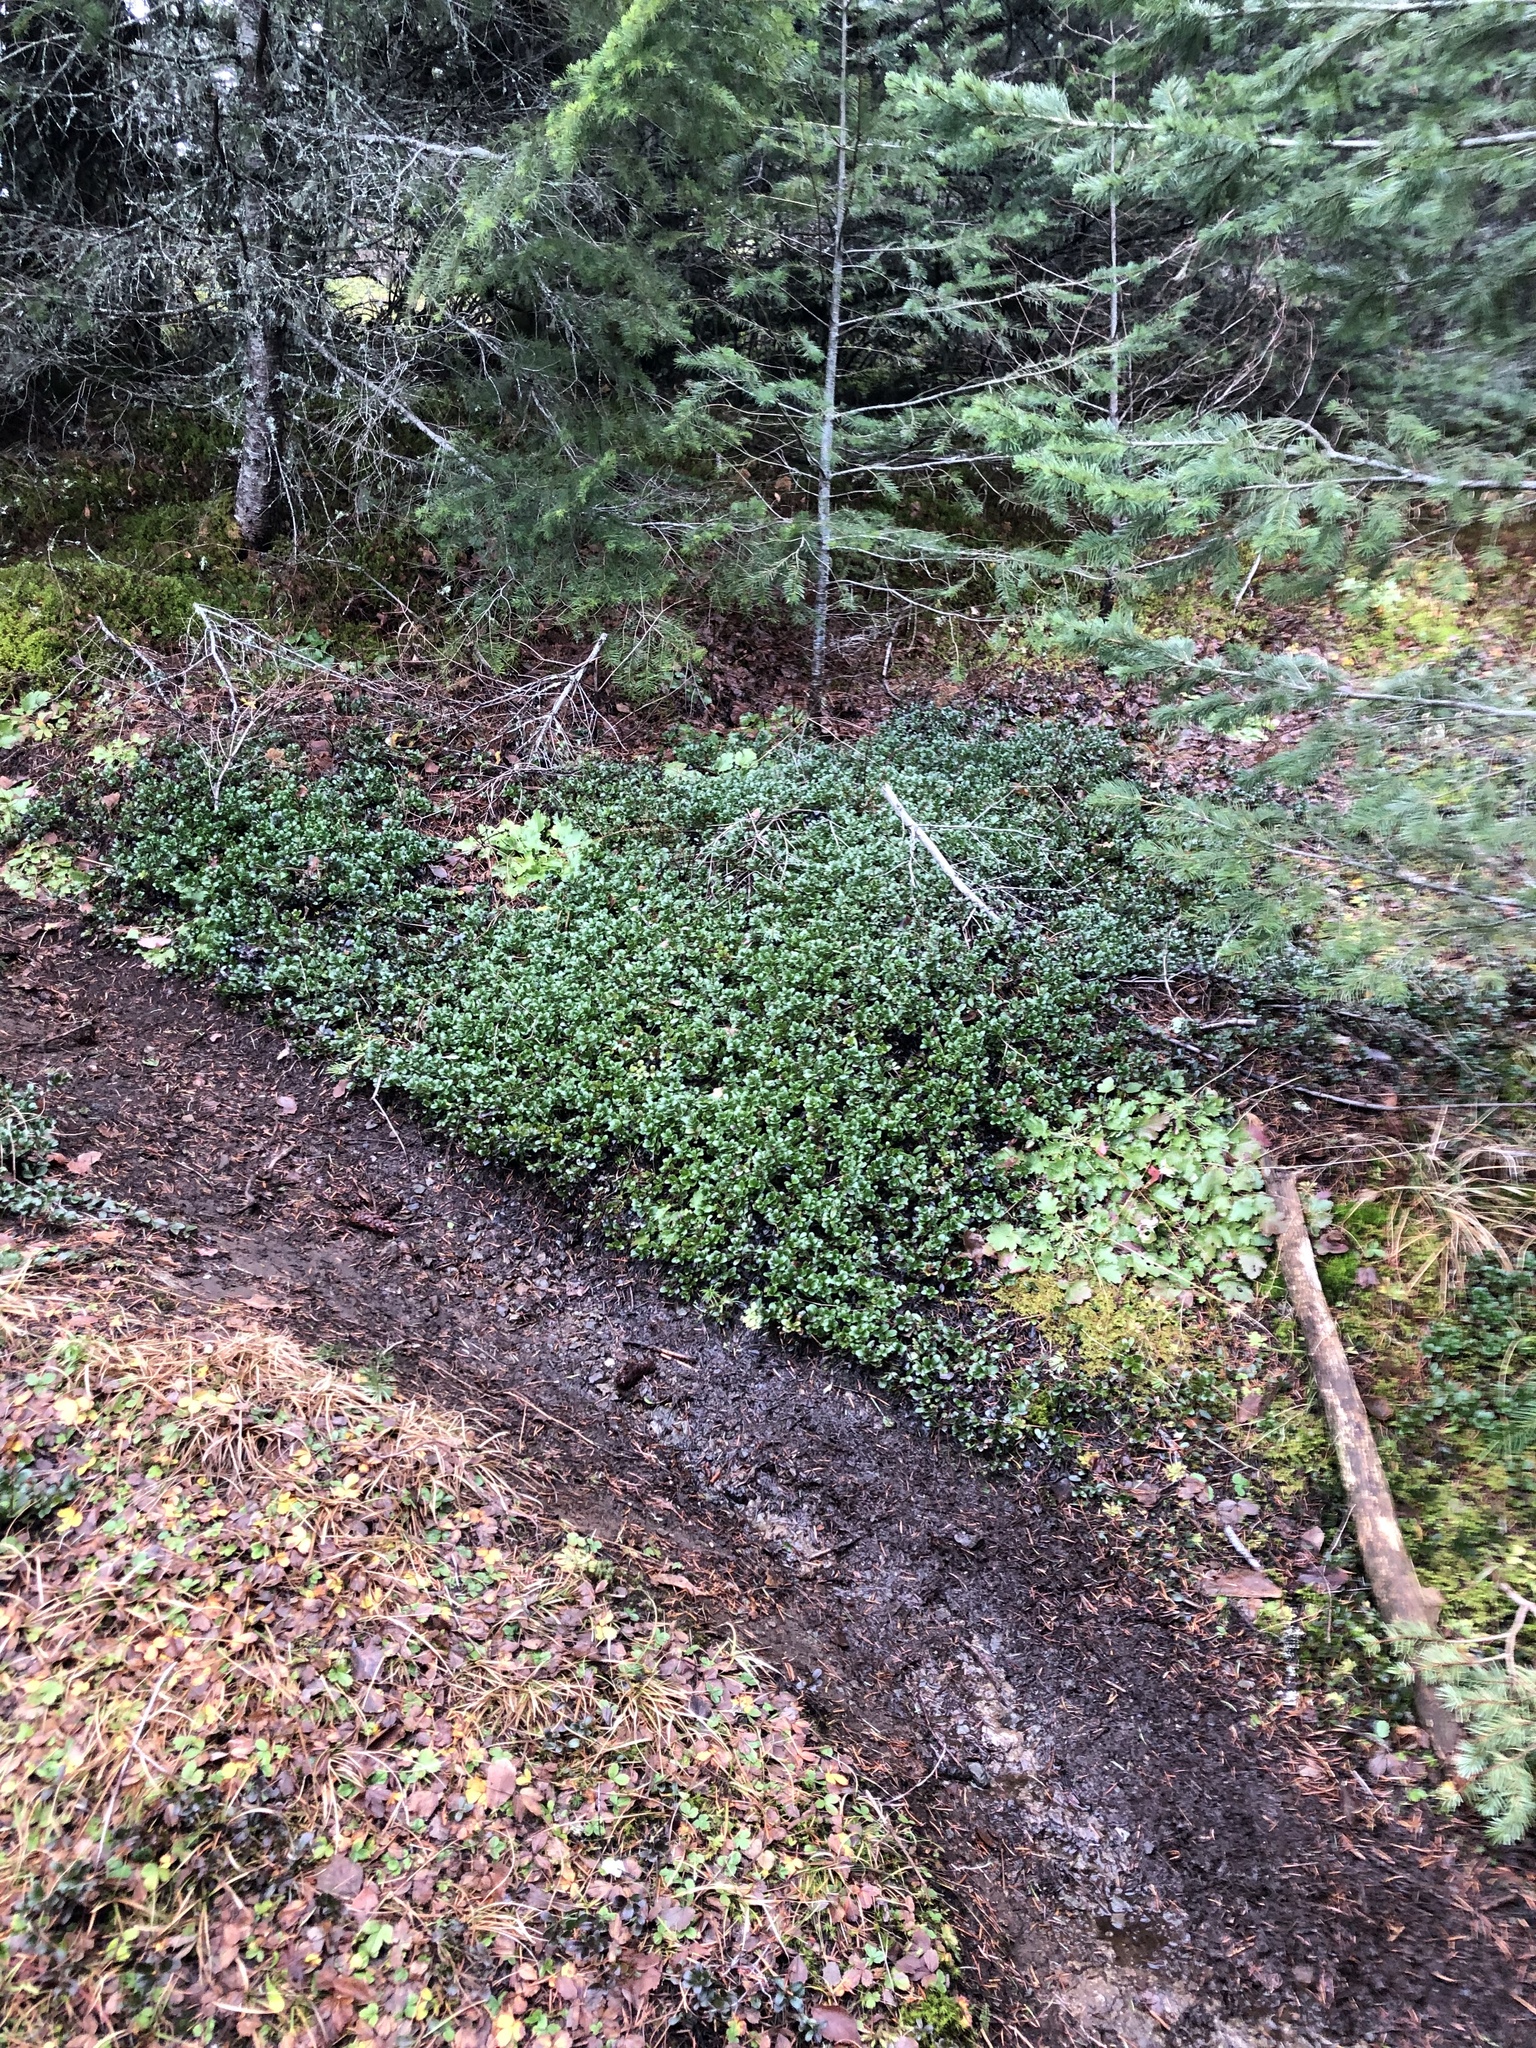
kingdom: Plantae
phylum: Tracheophyta
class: Magnoliopsida
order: Ericales
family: Ericaceae
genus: Arctostaphylos
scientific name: Arctostaphylos uva-ursi
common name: Bearberry
